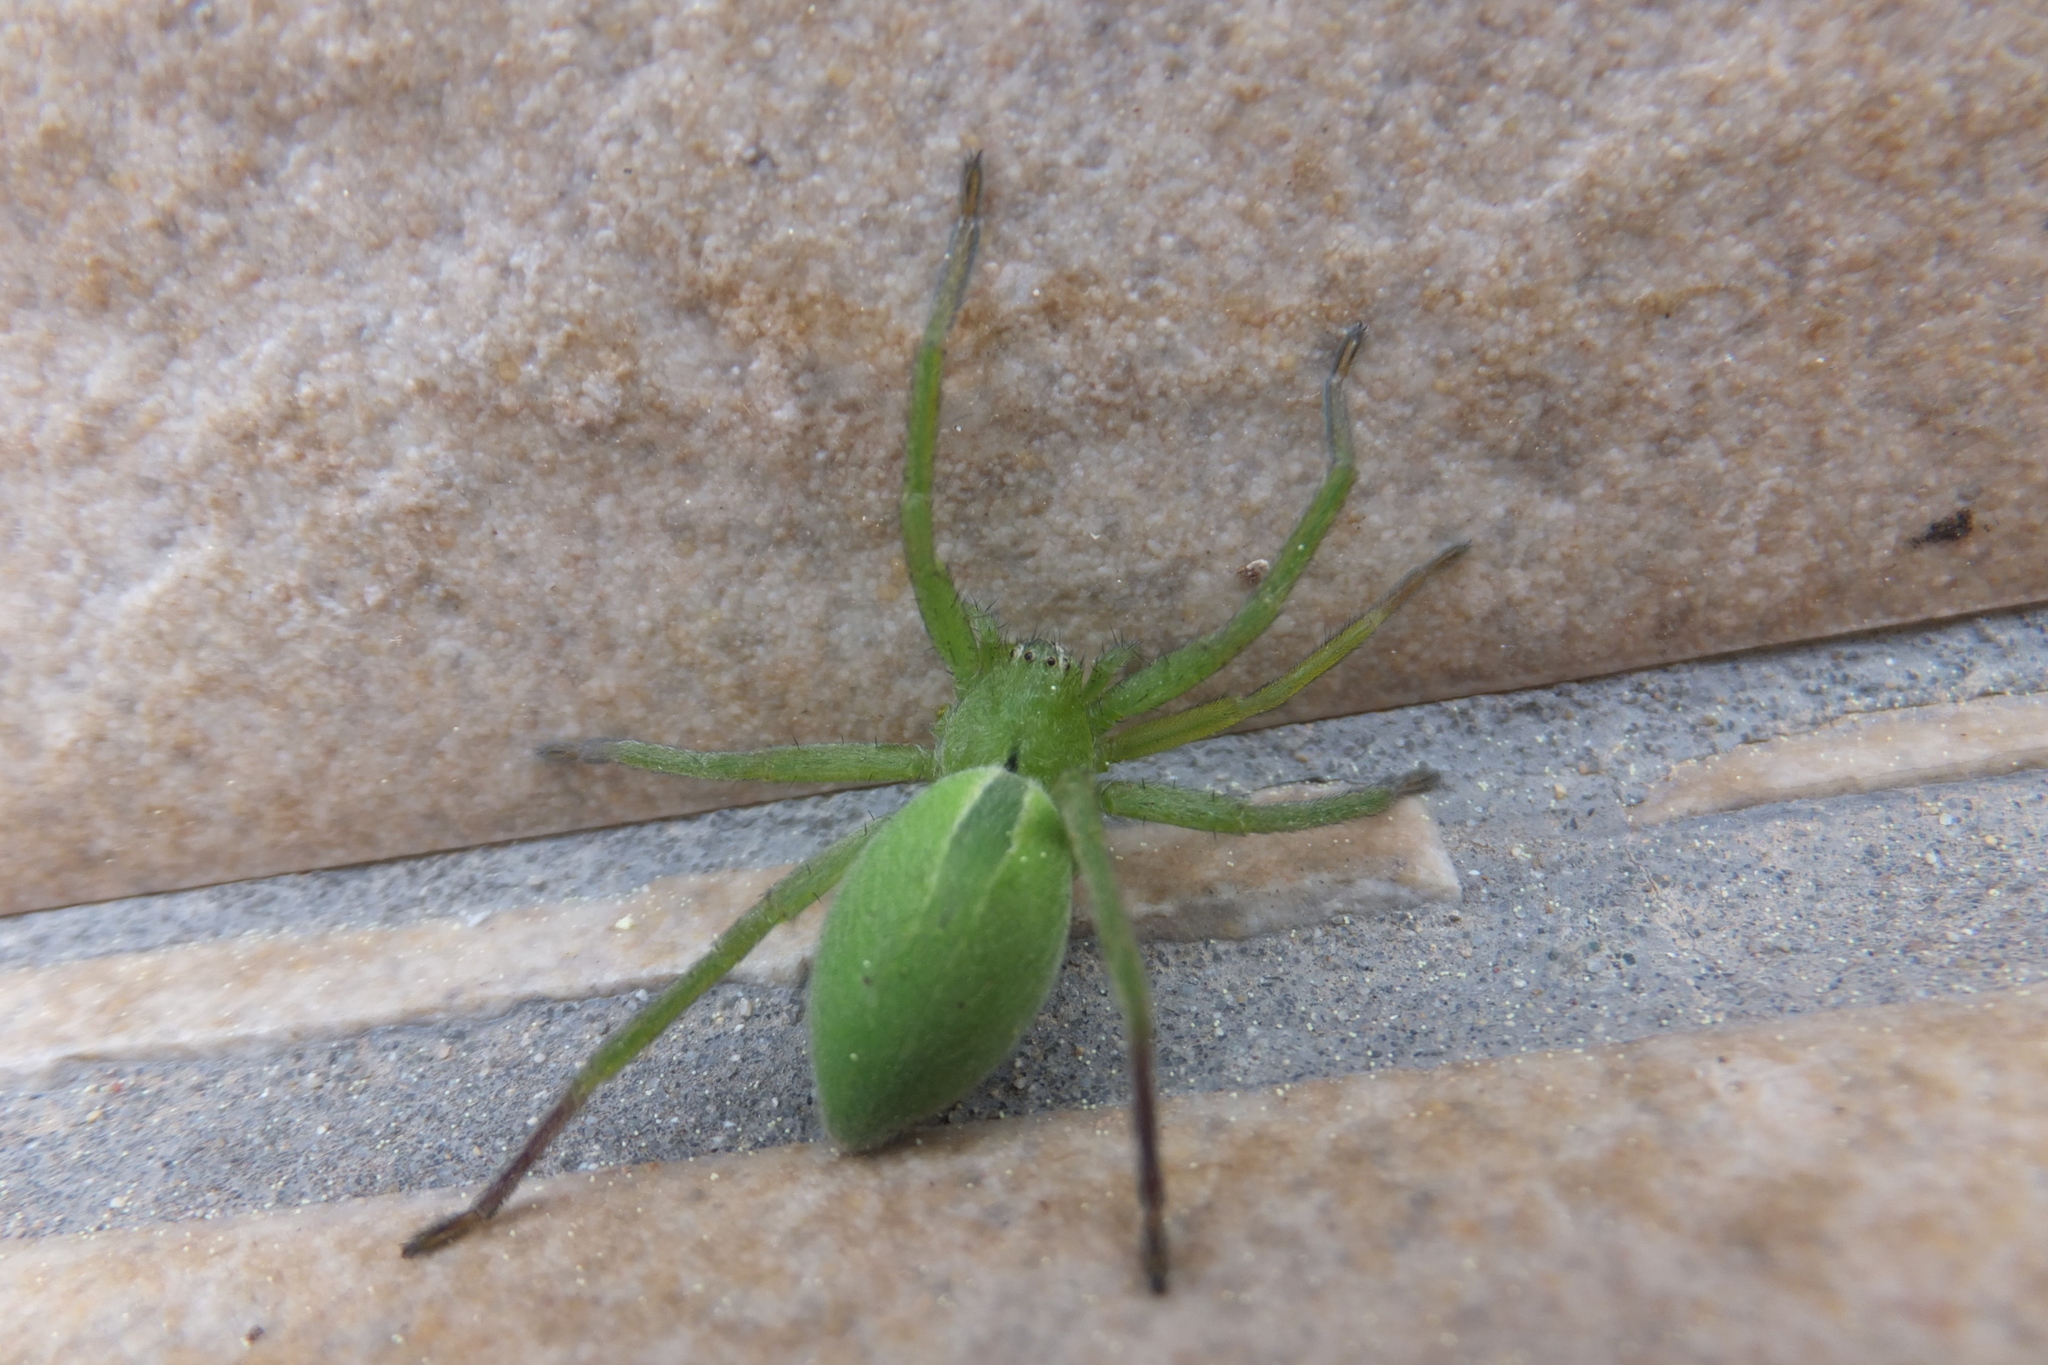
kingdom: Animalia
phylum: Arthropoda
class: Arachnida
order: Araneae
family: Sparassidae
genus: Micrommata
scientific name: Micrommata ligurina
